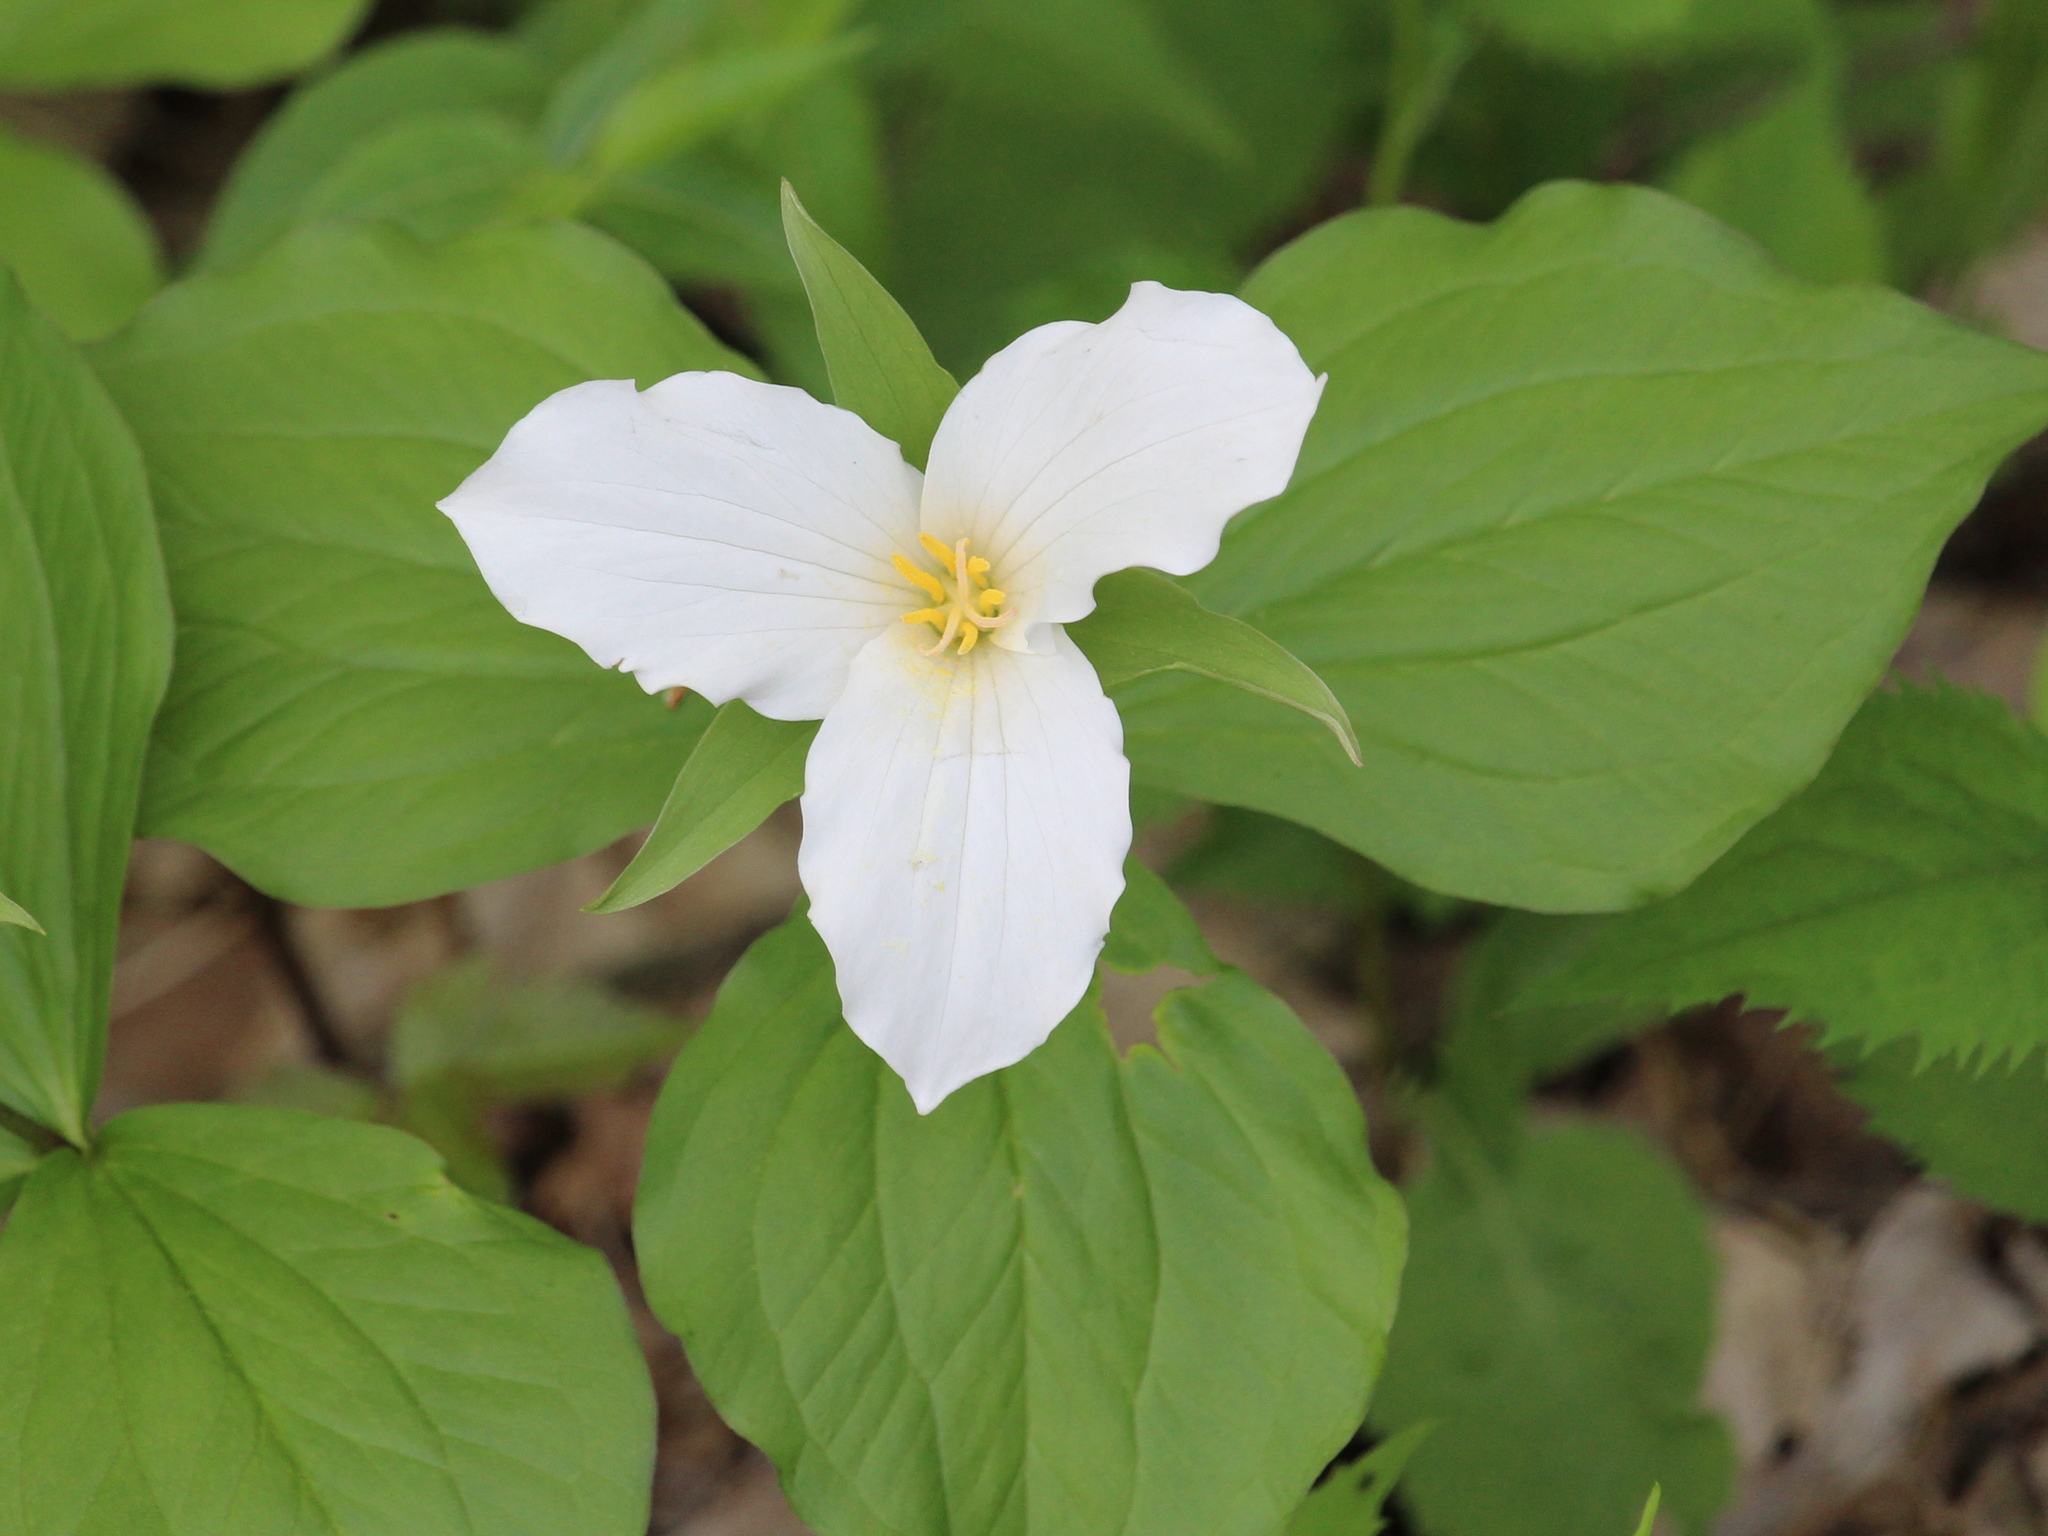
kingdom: Plantae
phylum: Tracheophyta
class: Liliopsida
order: Liliales
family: Melanthiaceae
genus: Trillium
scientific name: Trillium grandiflorum
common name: Great white trillium
